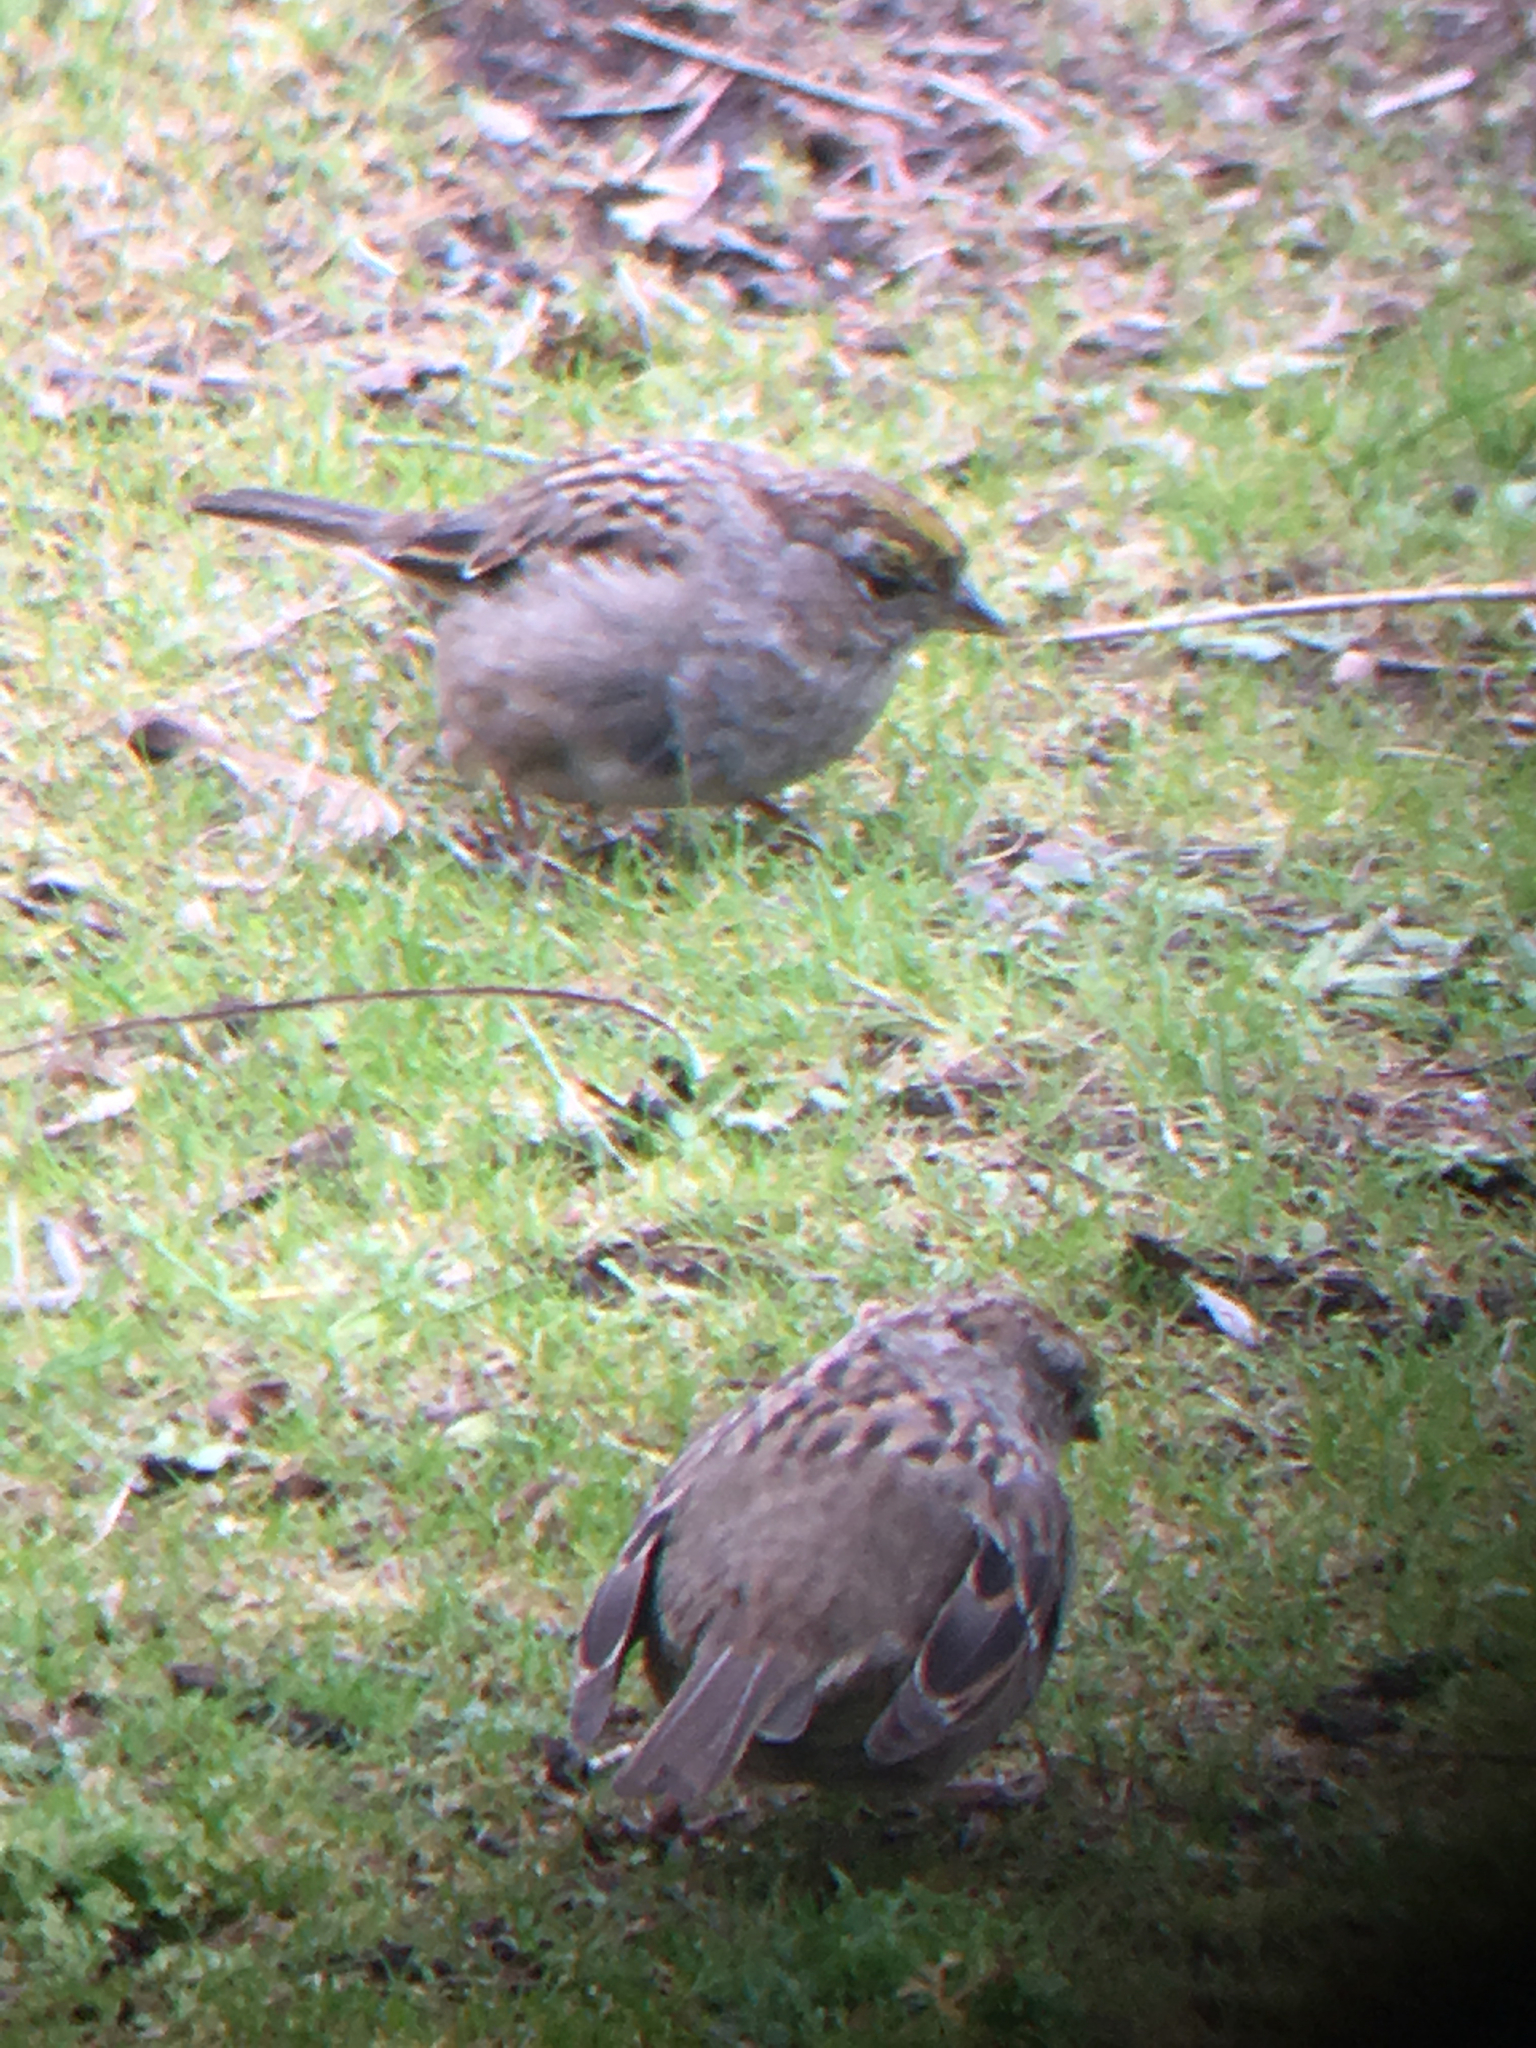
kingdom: Animalia
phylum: Chordata
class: Aves
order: Passeriformes
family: Passerellidae
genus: Zonotrichia
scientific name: Zonotrichia atricapilla
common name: Golden-crowned sparrow
